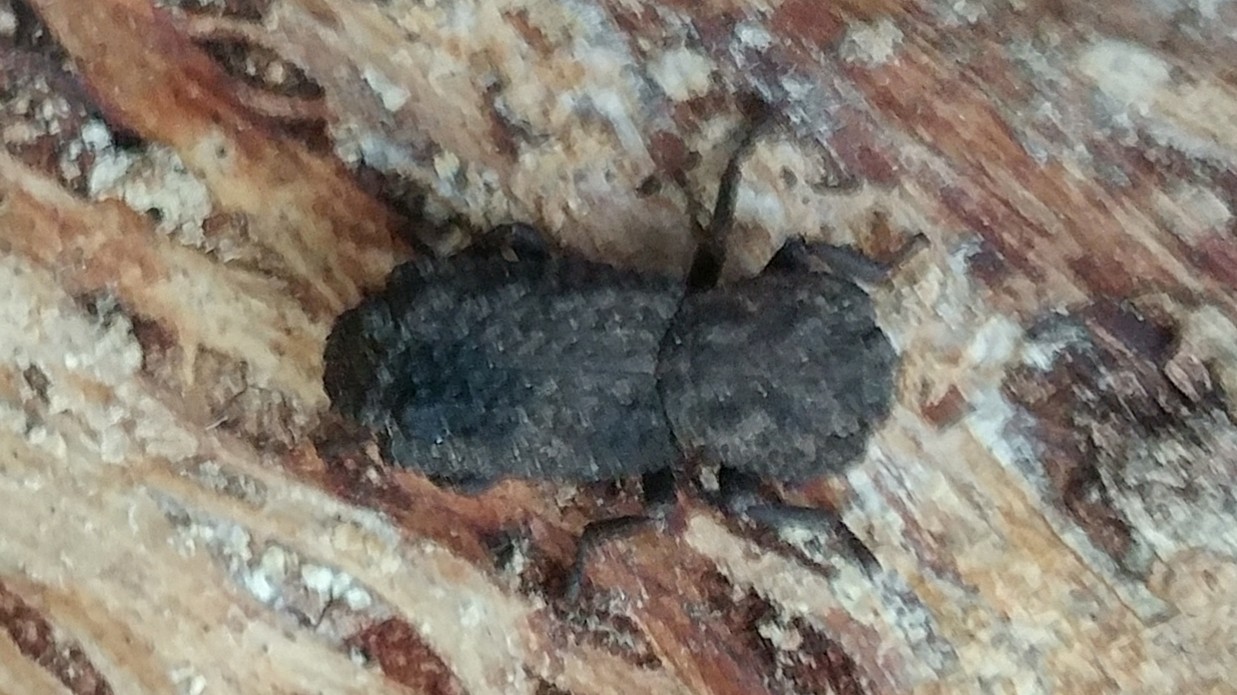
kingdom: Animalia
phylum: Arthropoda
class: Insecta
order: Coleoptera
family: Zopheridae
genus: Phloeodes
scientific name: Phloeodes plicatus
